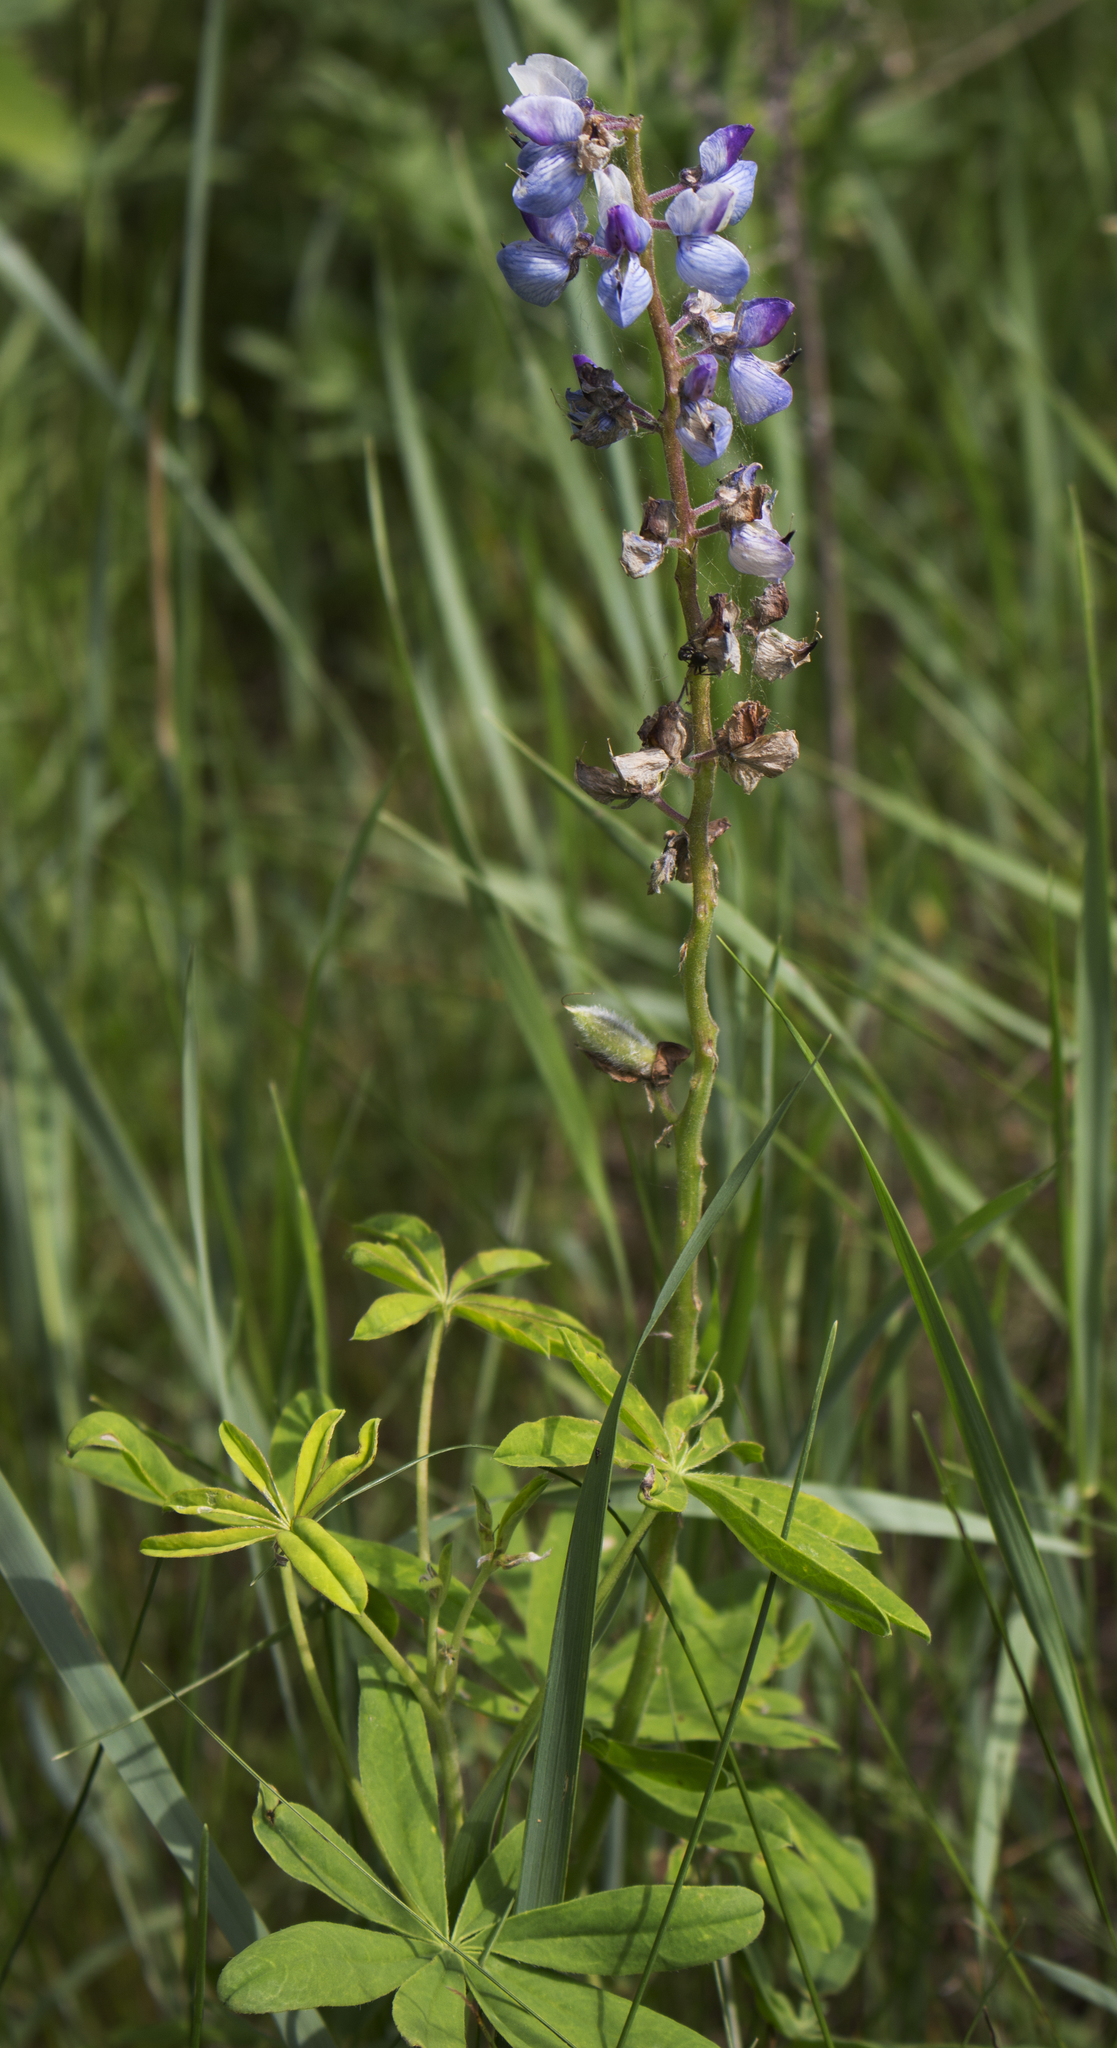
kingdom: Plantae
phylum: Tracheophyta
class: Magnoliopsida
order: Fabales
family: Fabaceae
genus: Lupinus
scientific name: Lupinus perennis
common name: Sundial lupine
